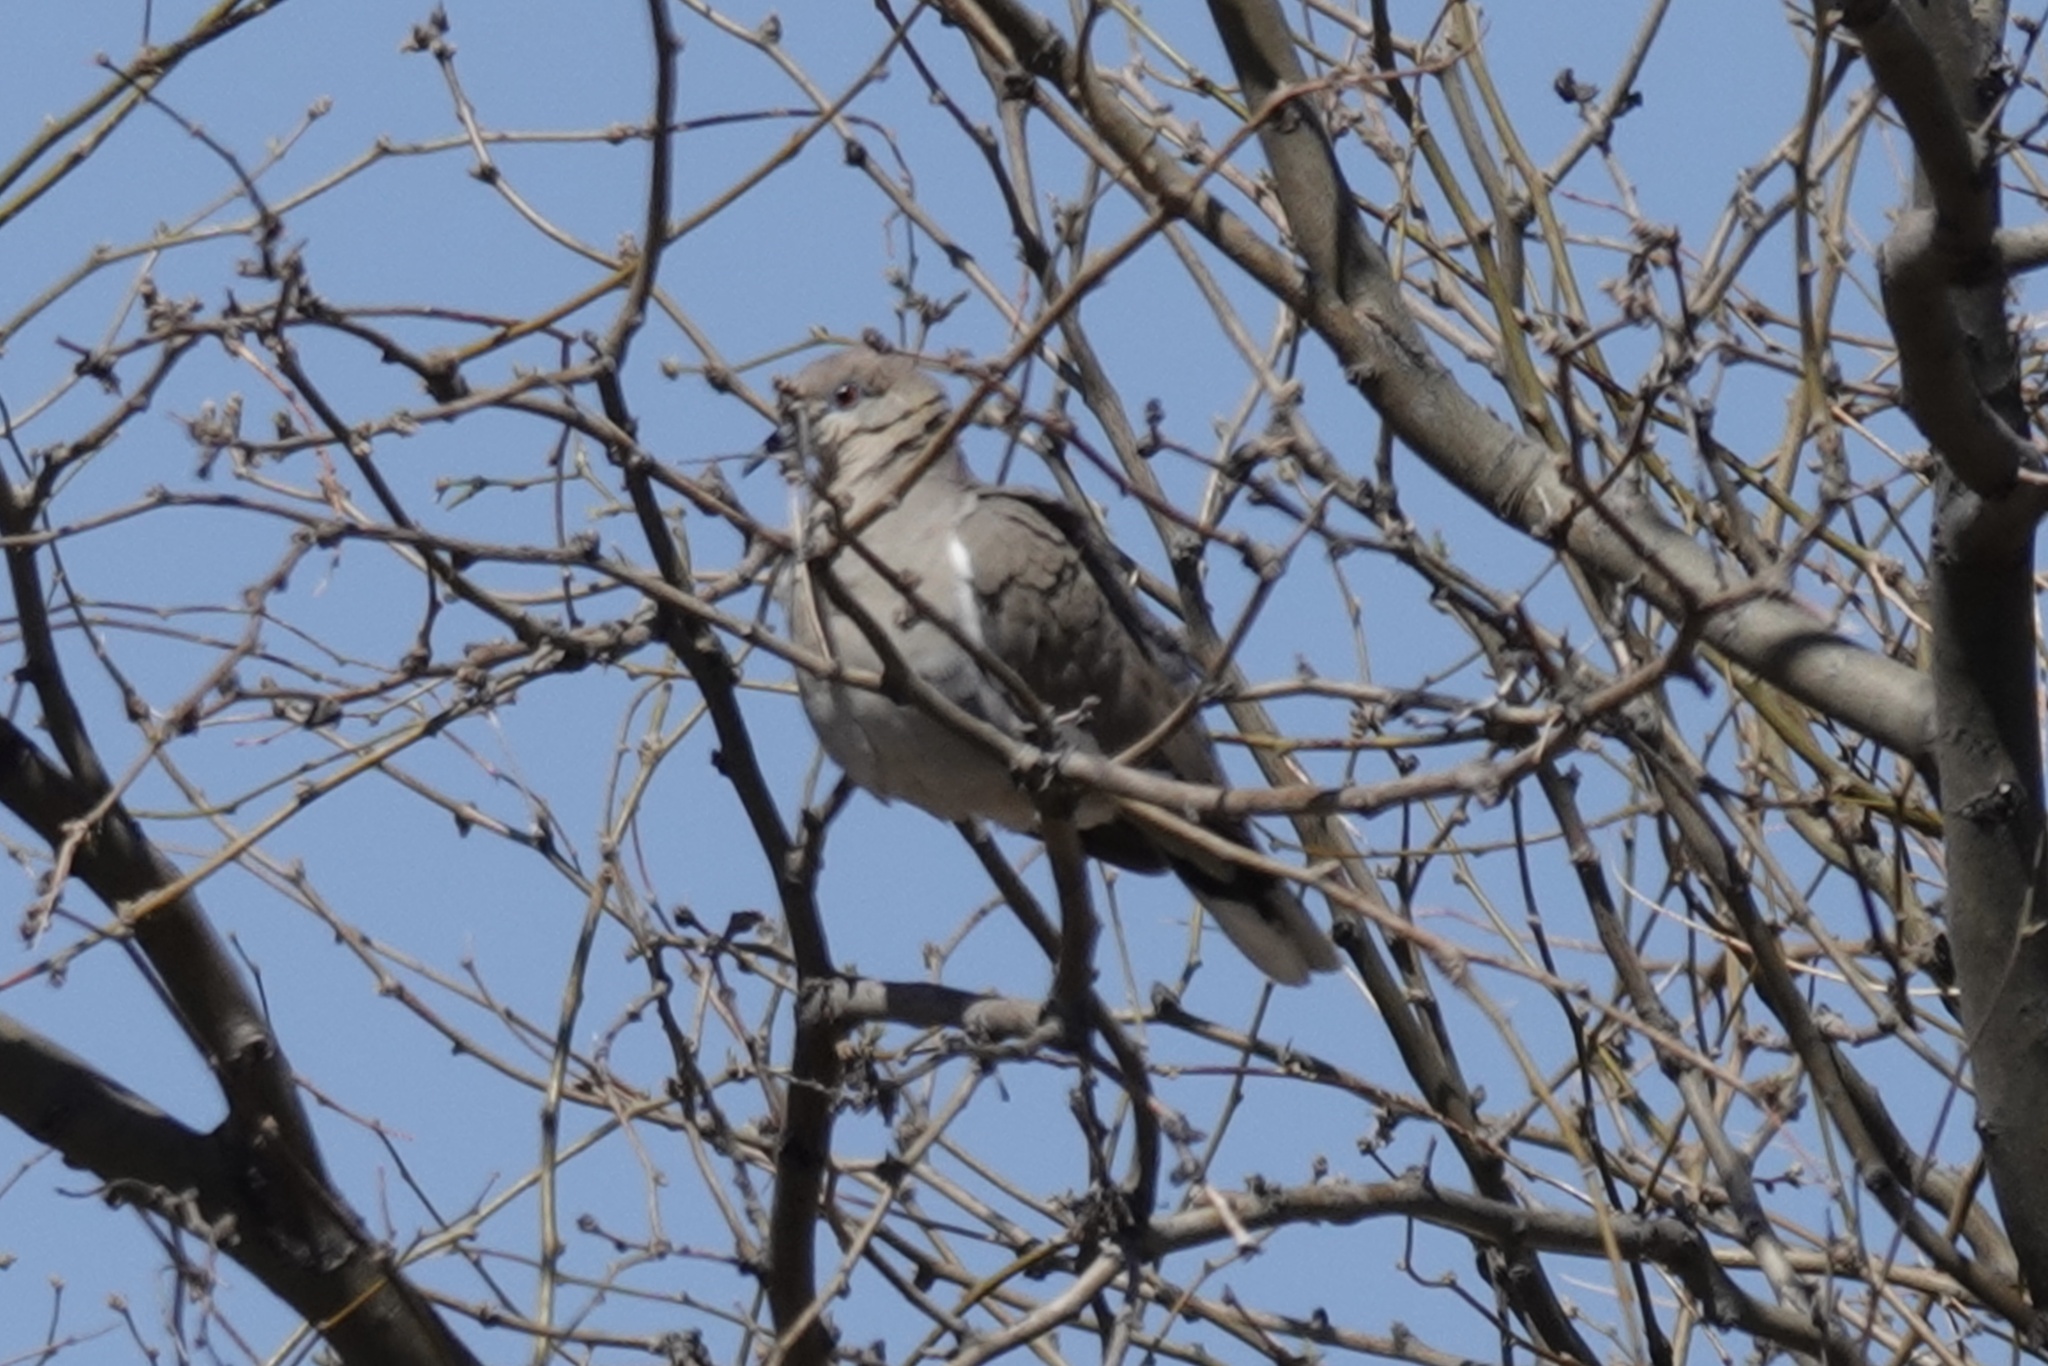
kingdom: Animalia
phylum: Chordata
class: Aves
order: Columbiformes
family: Columbidae
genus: Zenaida
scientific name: Zenaida asiatica
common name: White-winged dove
